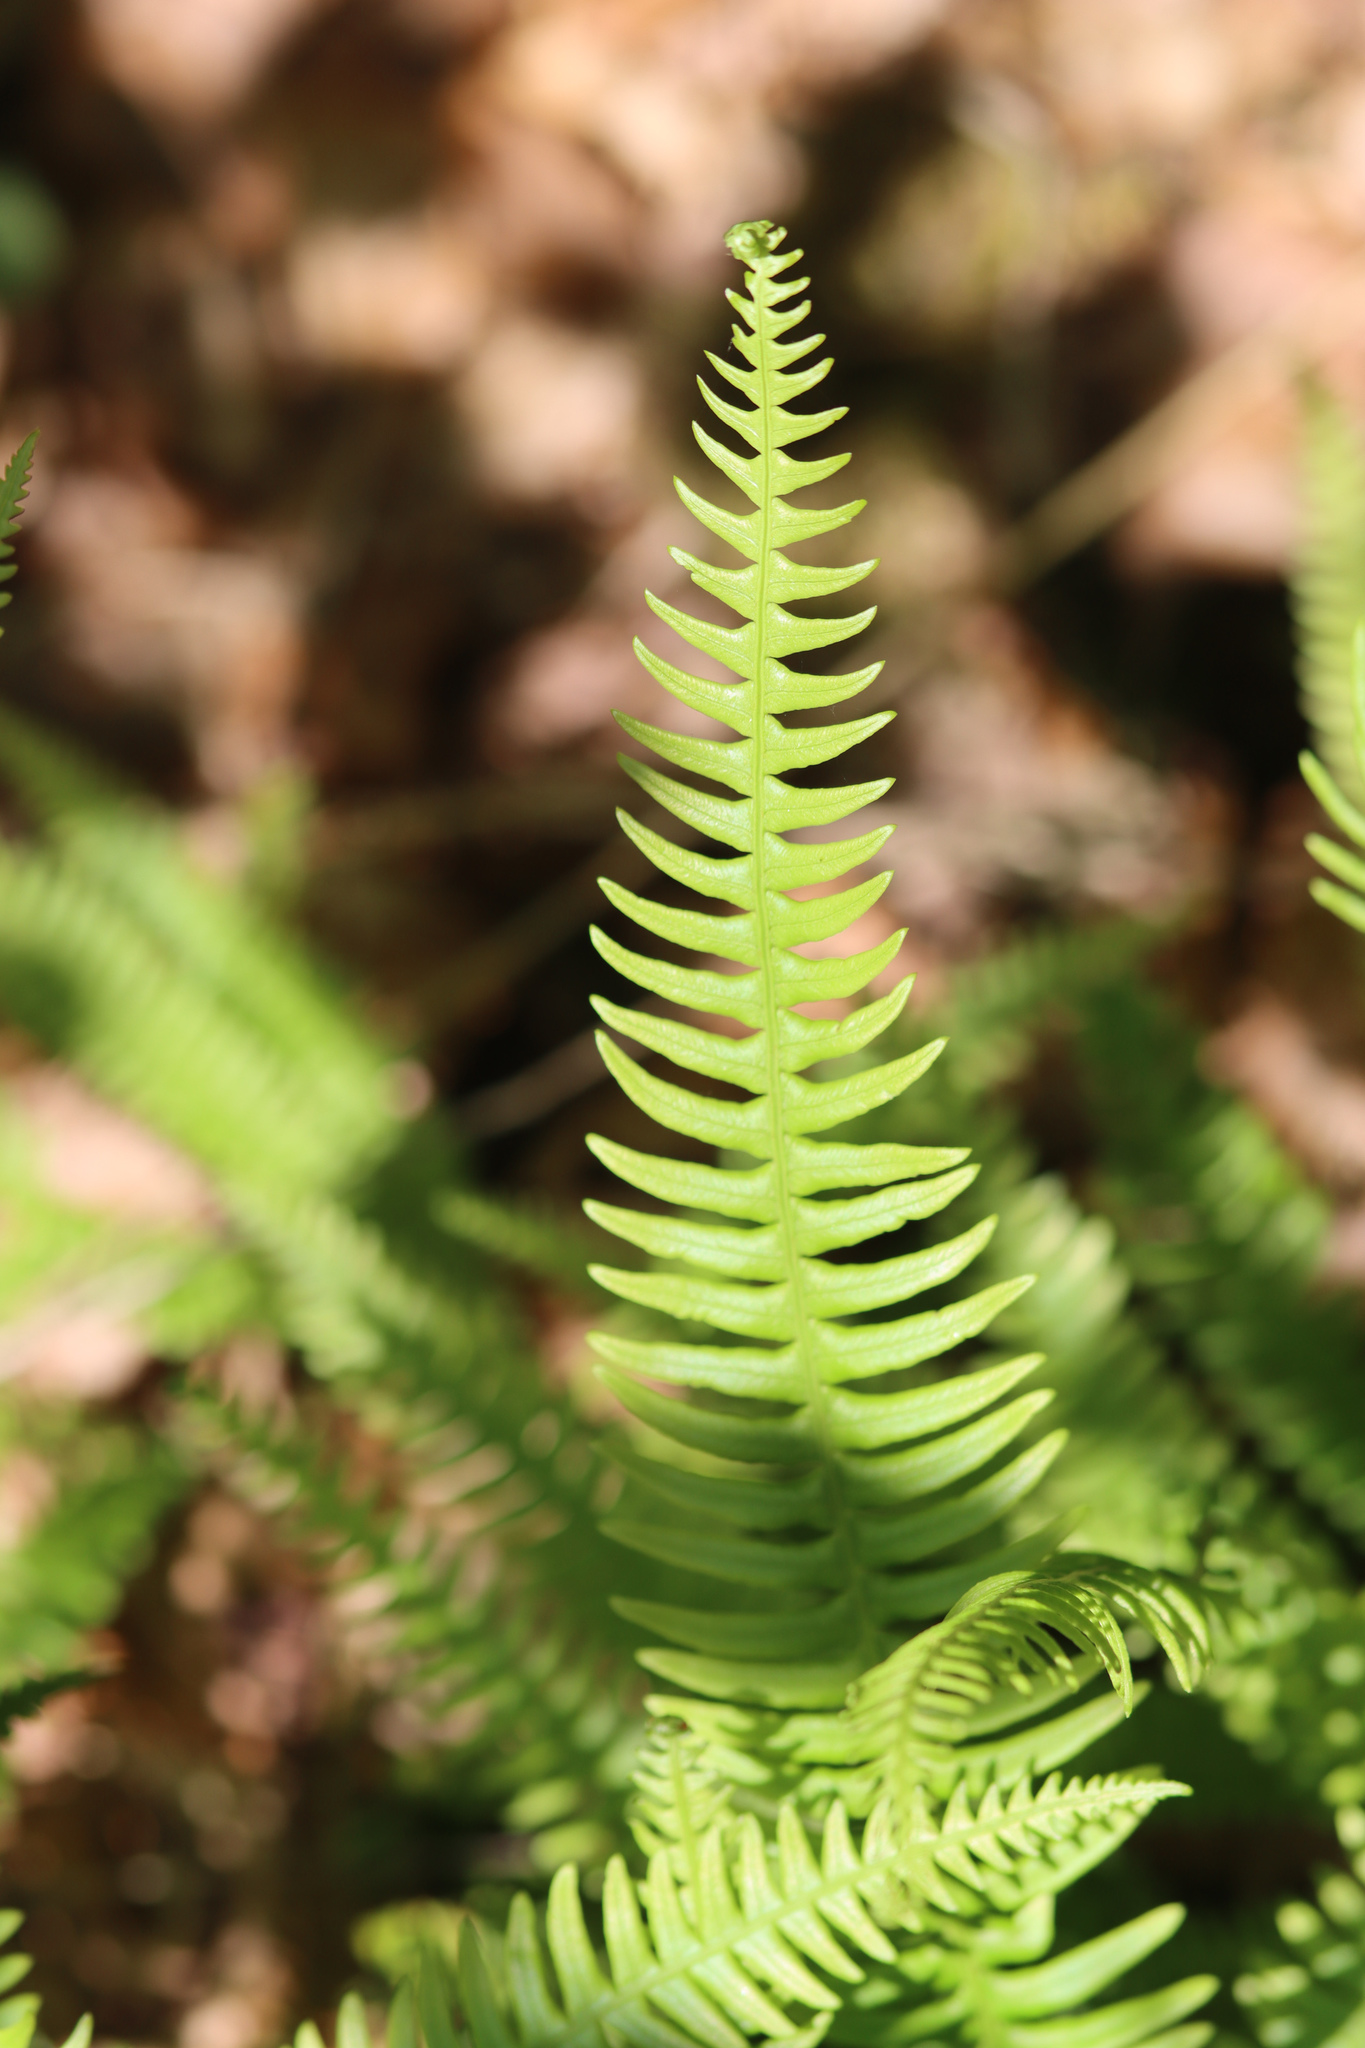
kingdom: Plantae
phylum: Tracheophyta
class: Polypodiopsida
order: Polypodiales
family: Blechnaceae
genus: Struthiopteris
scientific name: Struthiopteris spicant
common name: Deer fern
